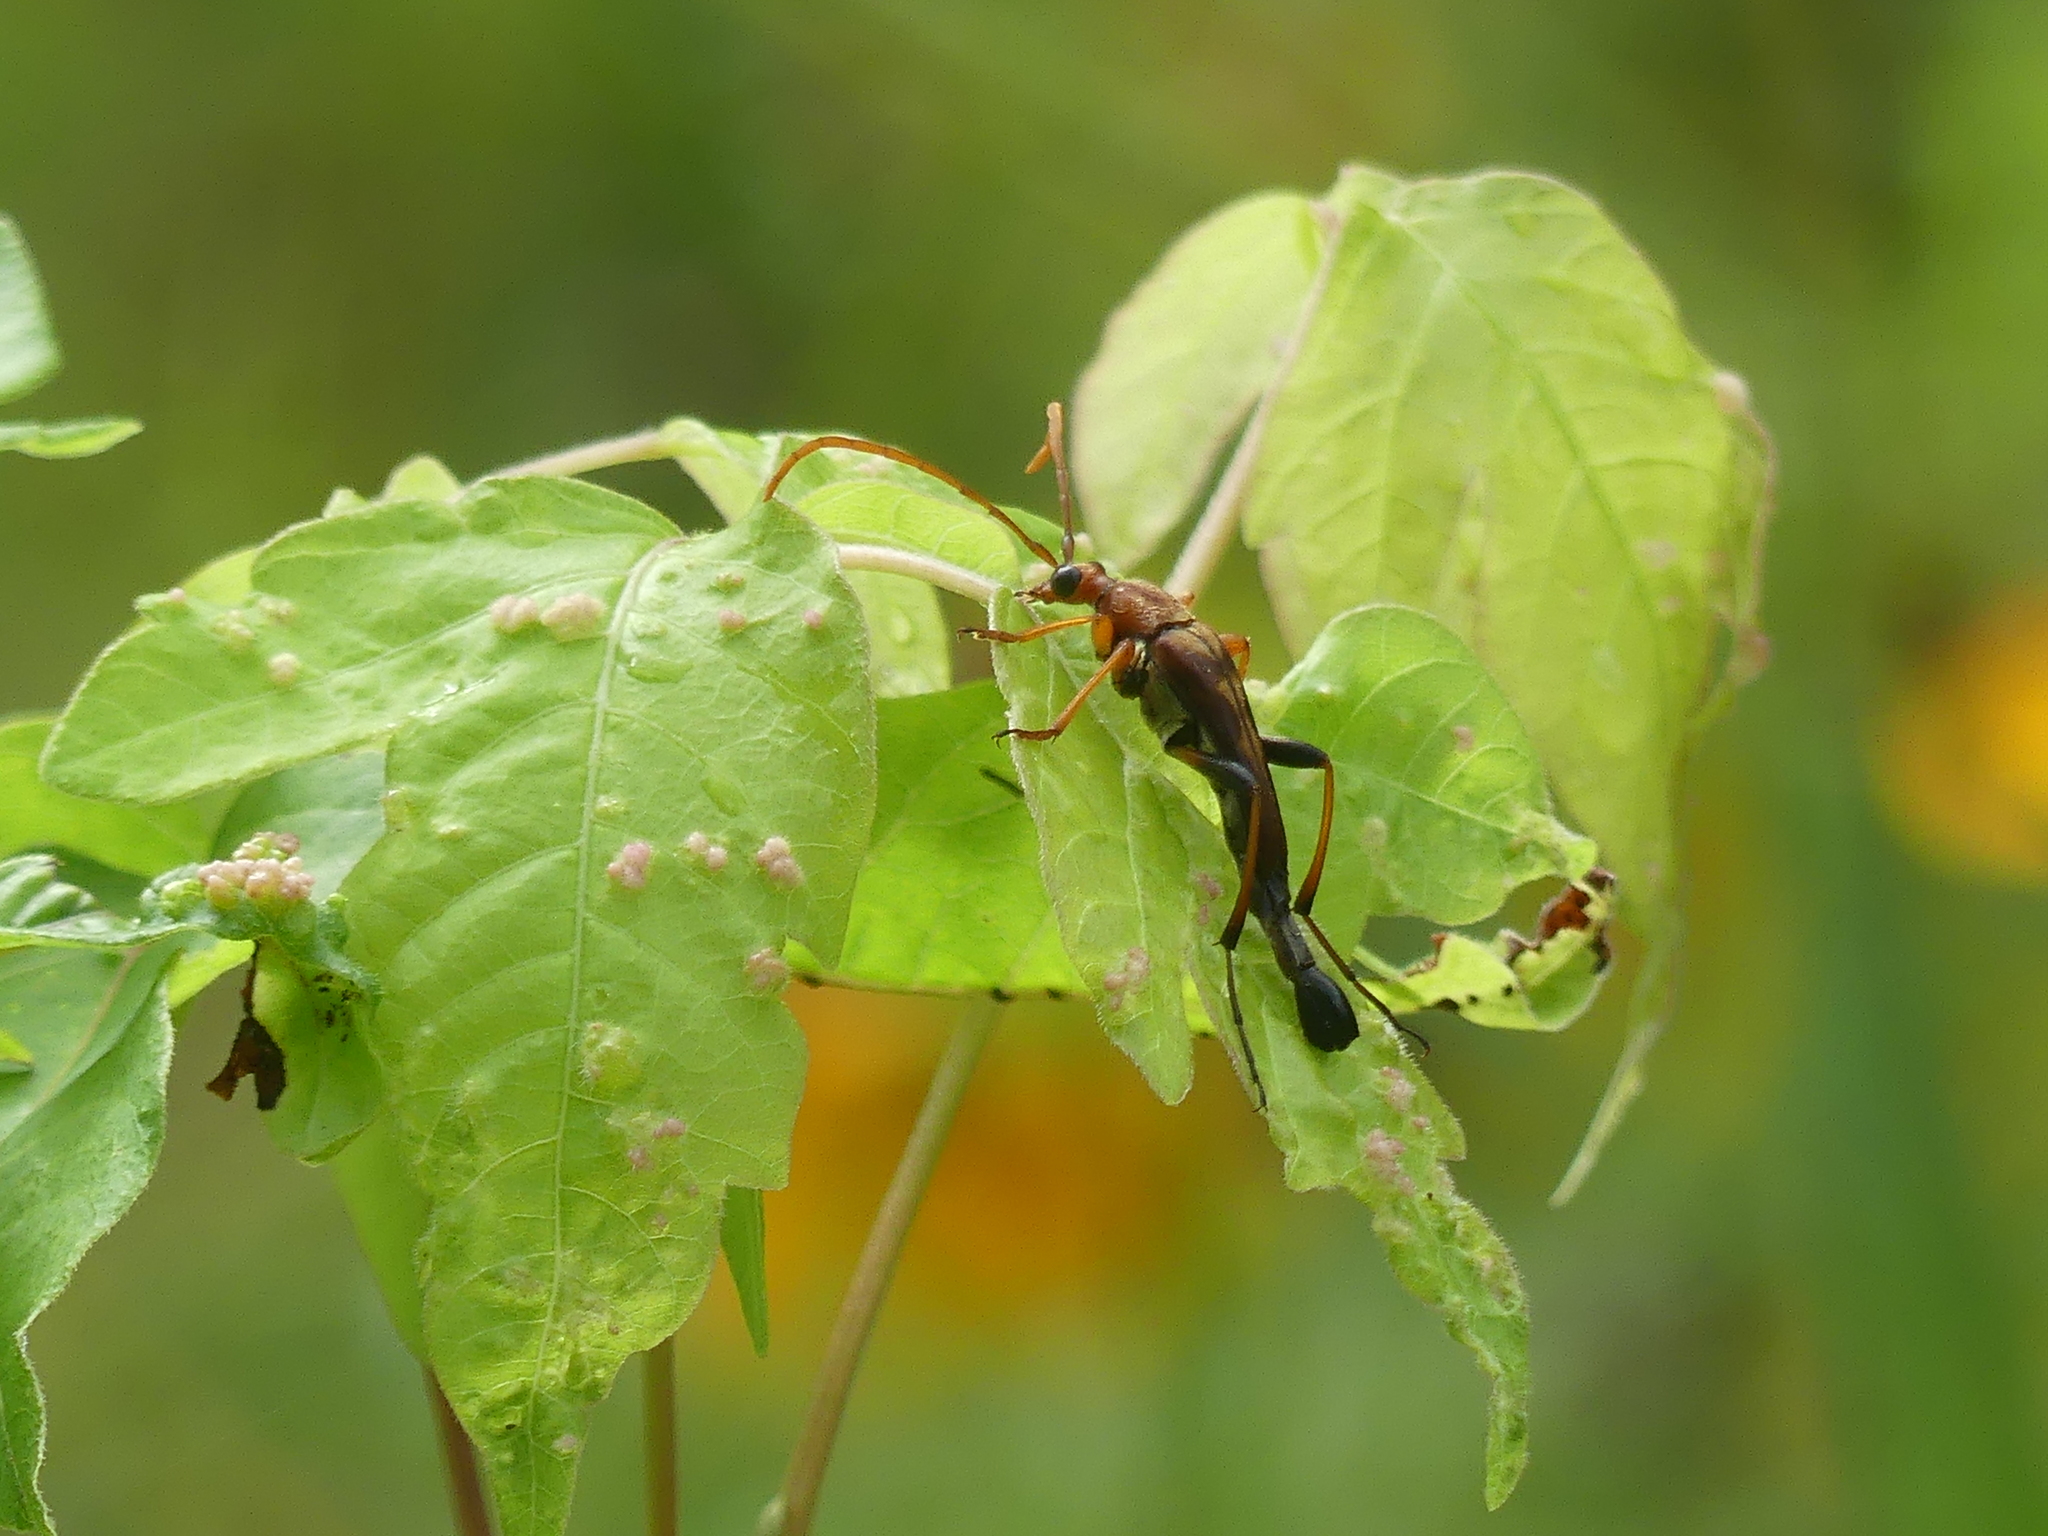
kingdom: Animalia
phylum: Arthropoda
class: Insecta
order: Coleoptera
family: Cerambycidae
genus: Strangalia
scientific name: Strangalia virilis
